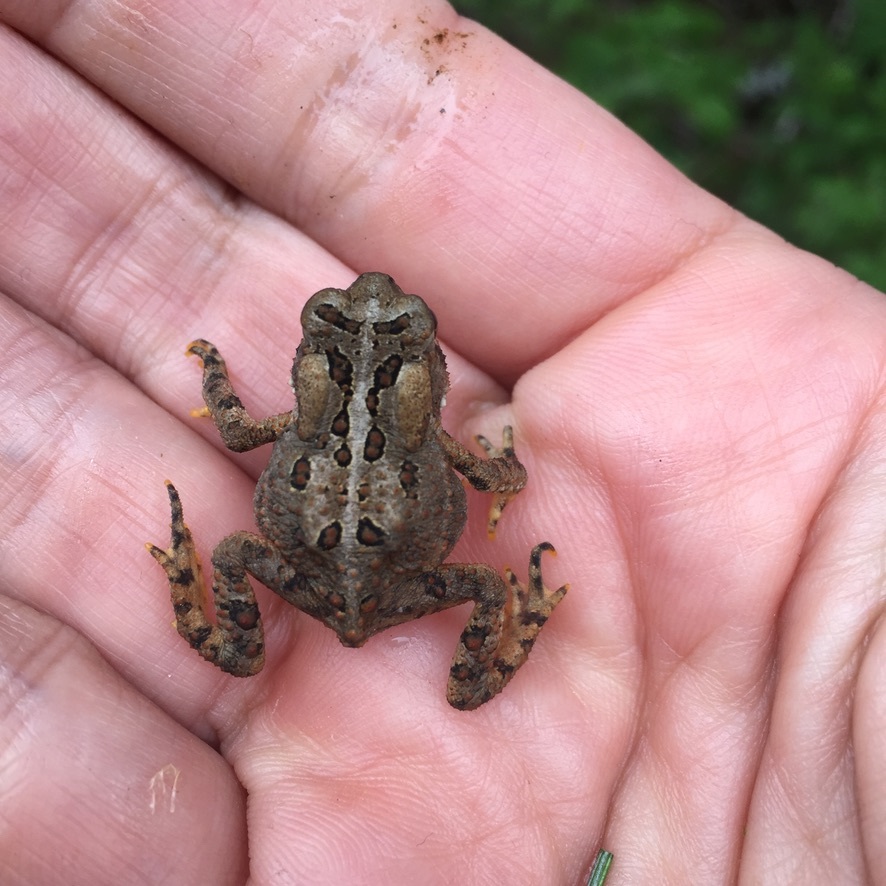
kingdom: Animalia
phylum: Chordata
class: Amphibia
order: Anura
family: Bufonidae
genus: Anaxyrus
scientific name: Anaxyrus americanus
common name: American toad
